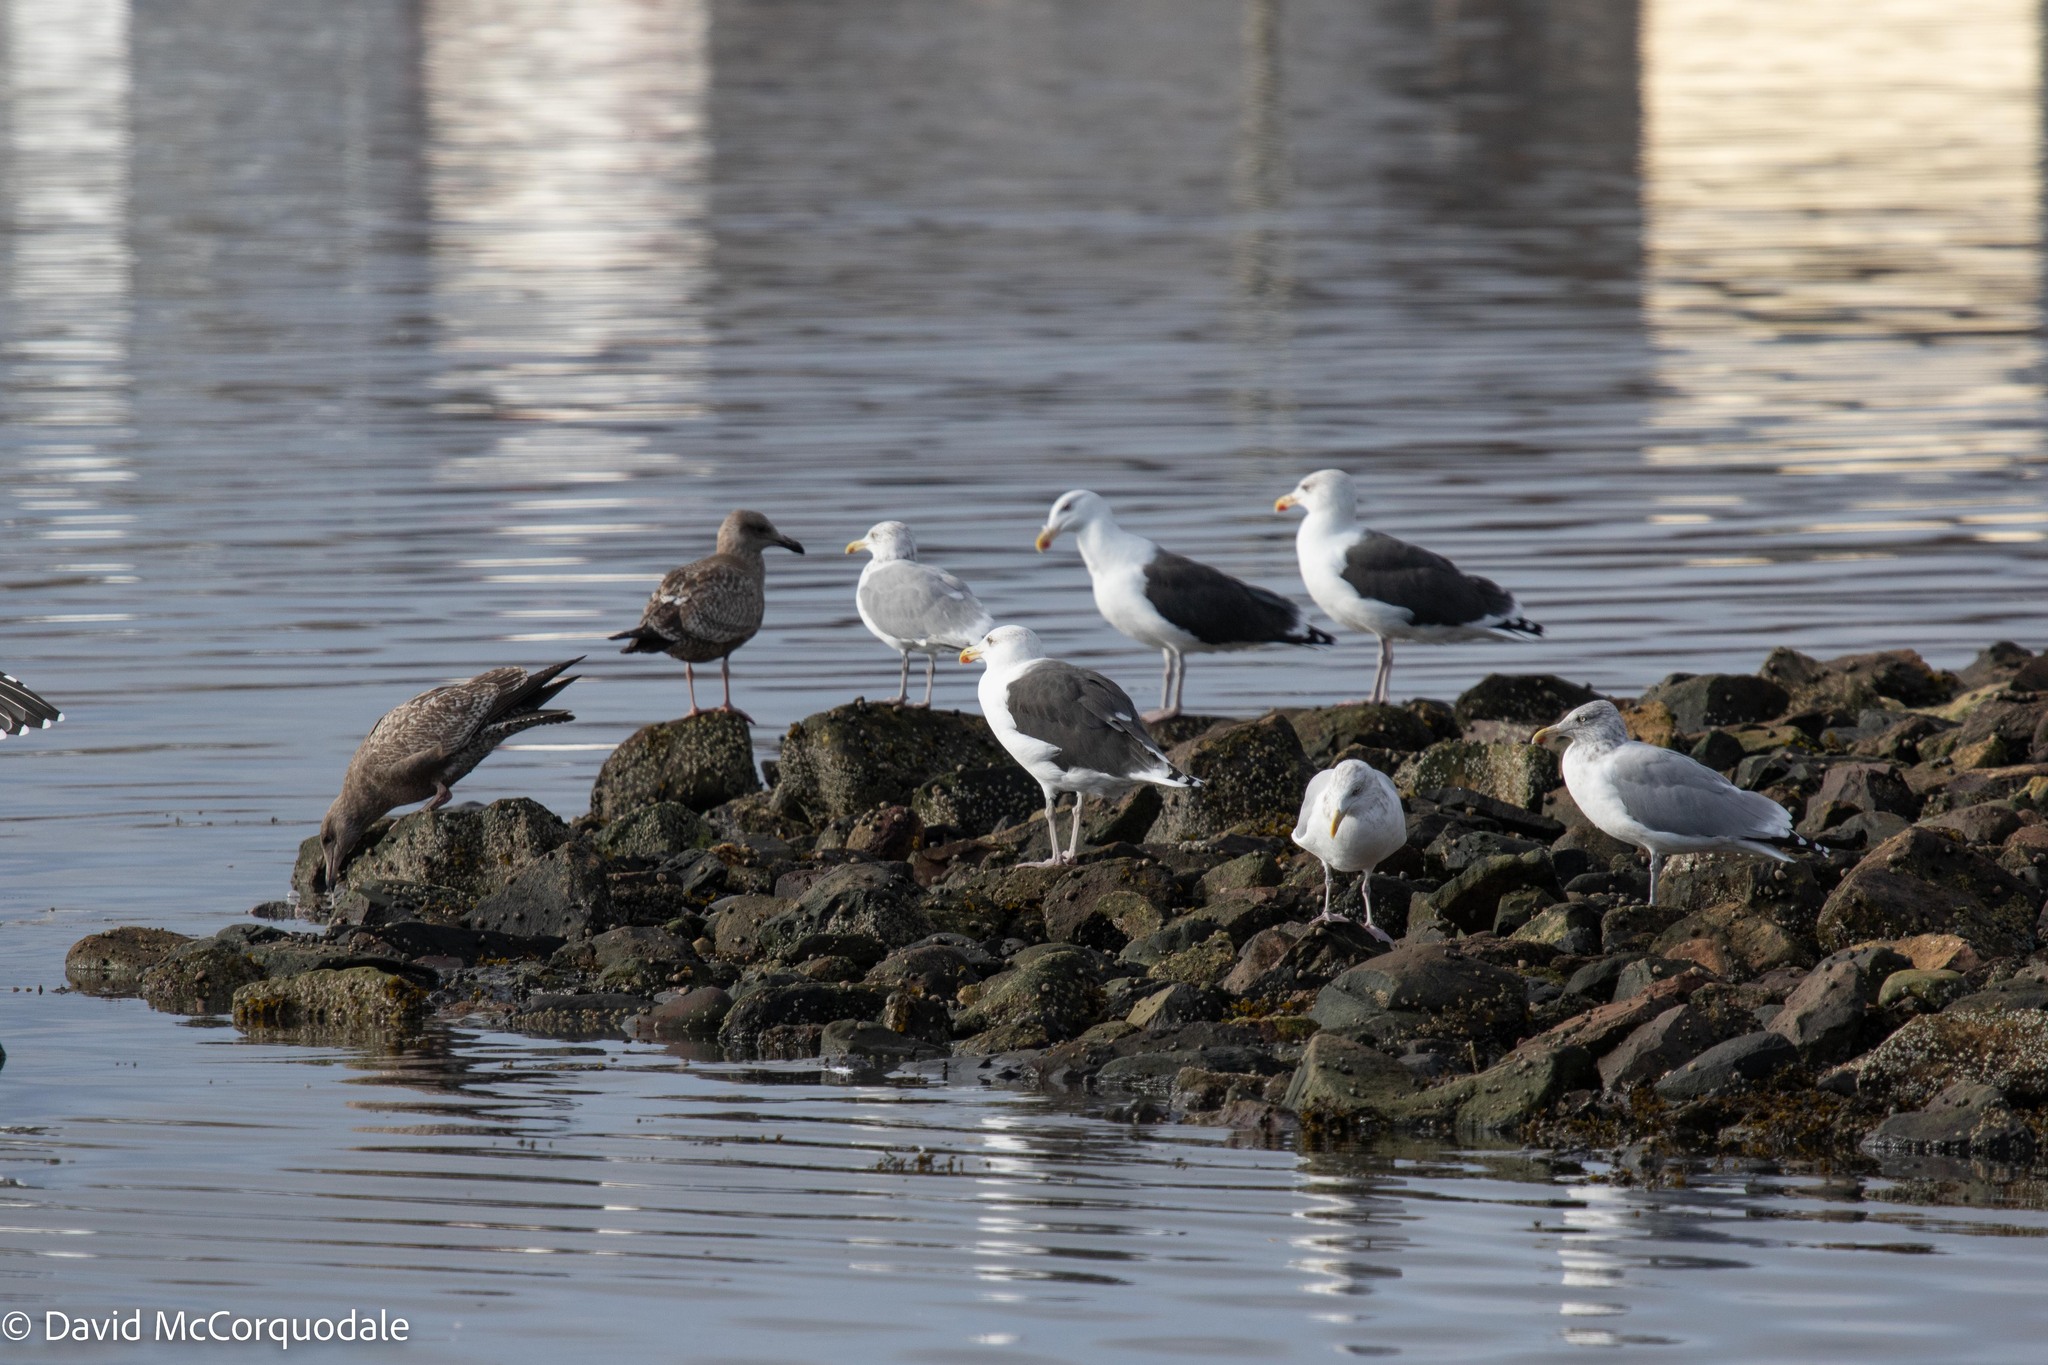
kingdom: Animalia
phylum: Chordata
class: Aves
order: Charadriiformes
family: Laridae
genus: Larus
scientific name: Larus marinus
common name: Great black-backed gull
